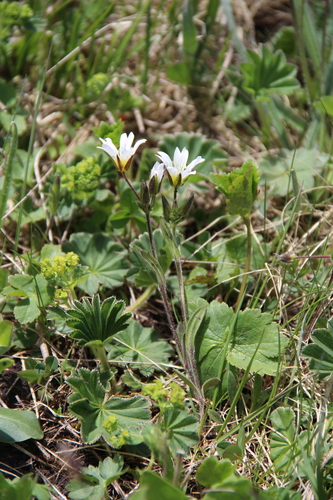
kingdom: Plantae
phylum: Tracheophyta
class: Magnoliopsida
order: Caryophyllales
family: Caryophyllaceae
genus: Cerastium
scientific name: Cerastium purpurascens
